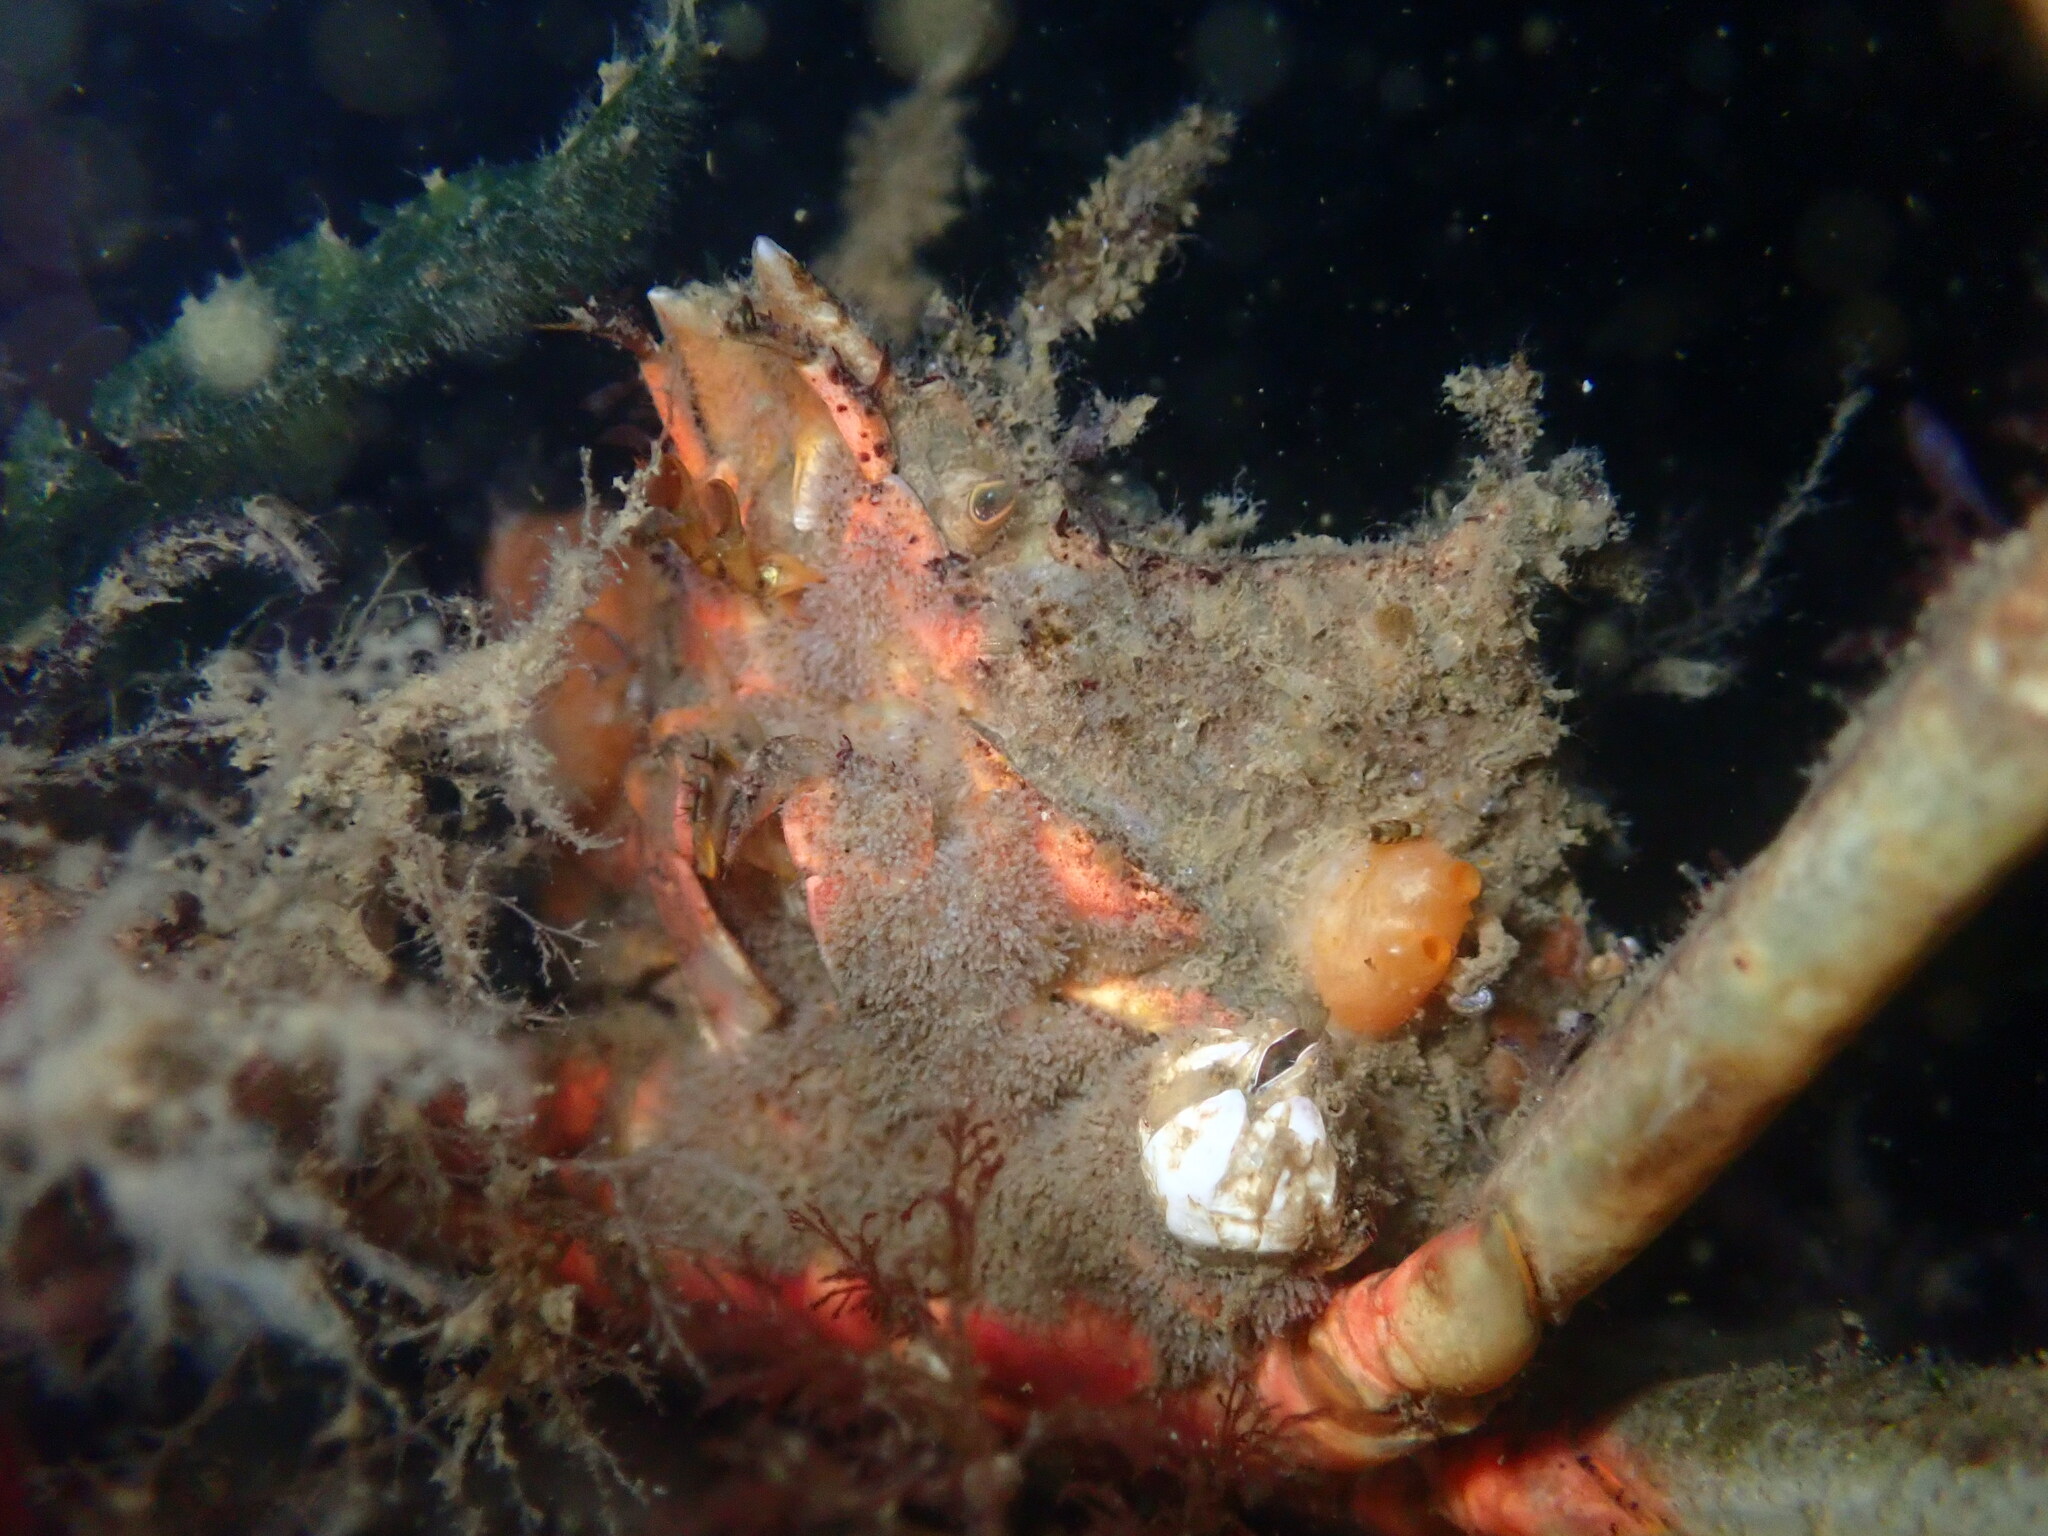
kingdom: Animalia
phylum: Arthropoda
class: Malacostraca
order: Decapoda
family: Epialtidae
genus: Pugettia
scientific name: Pugettia producta
